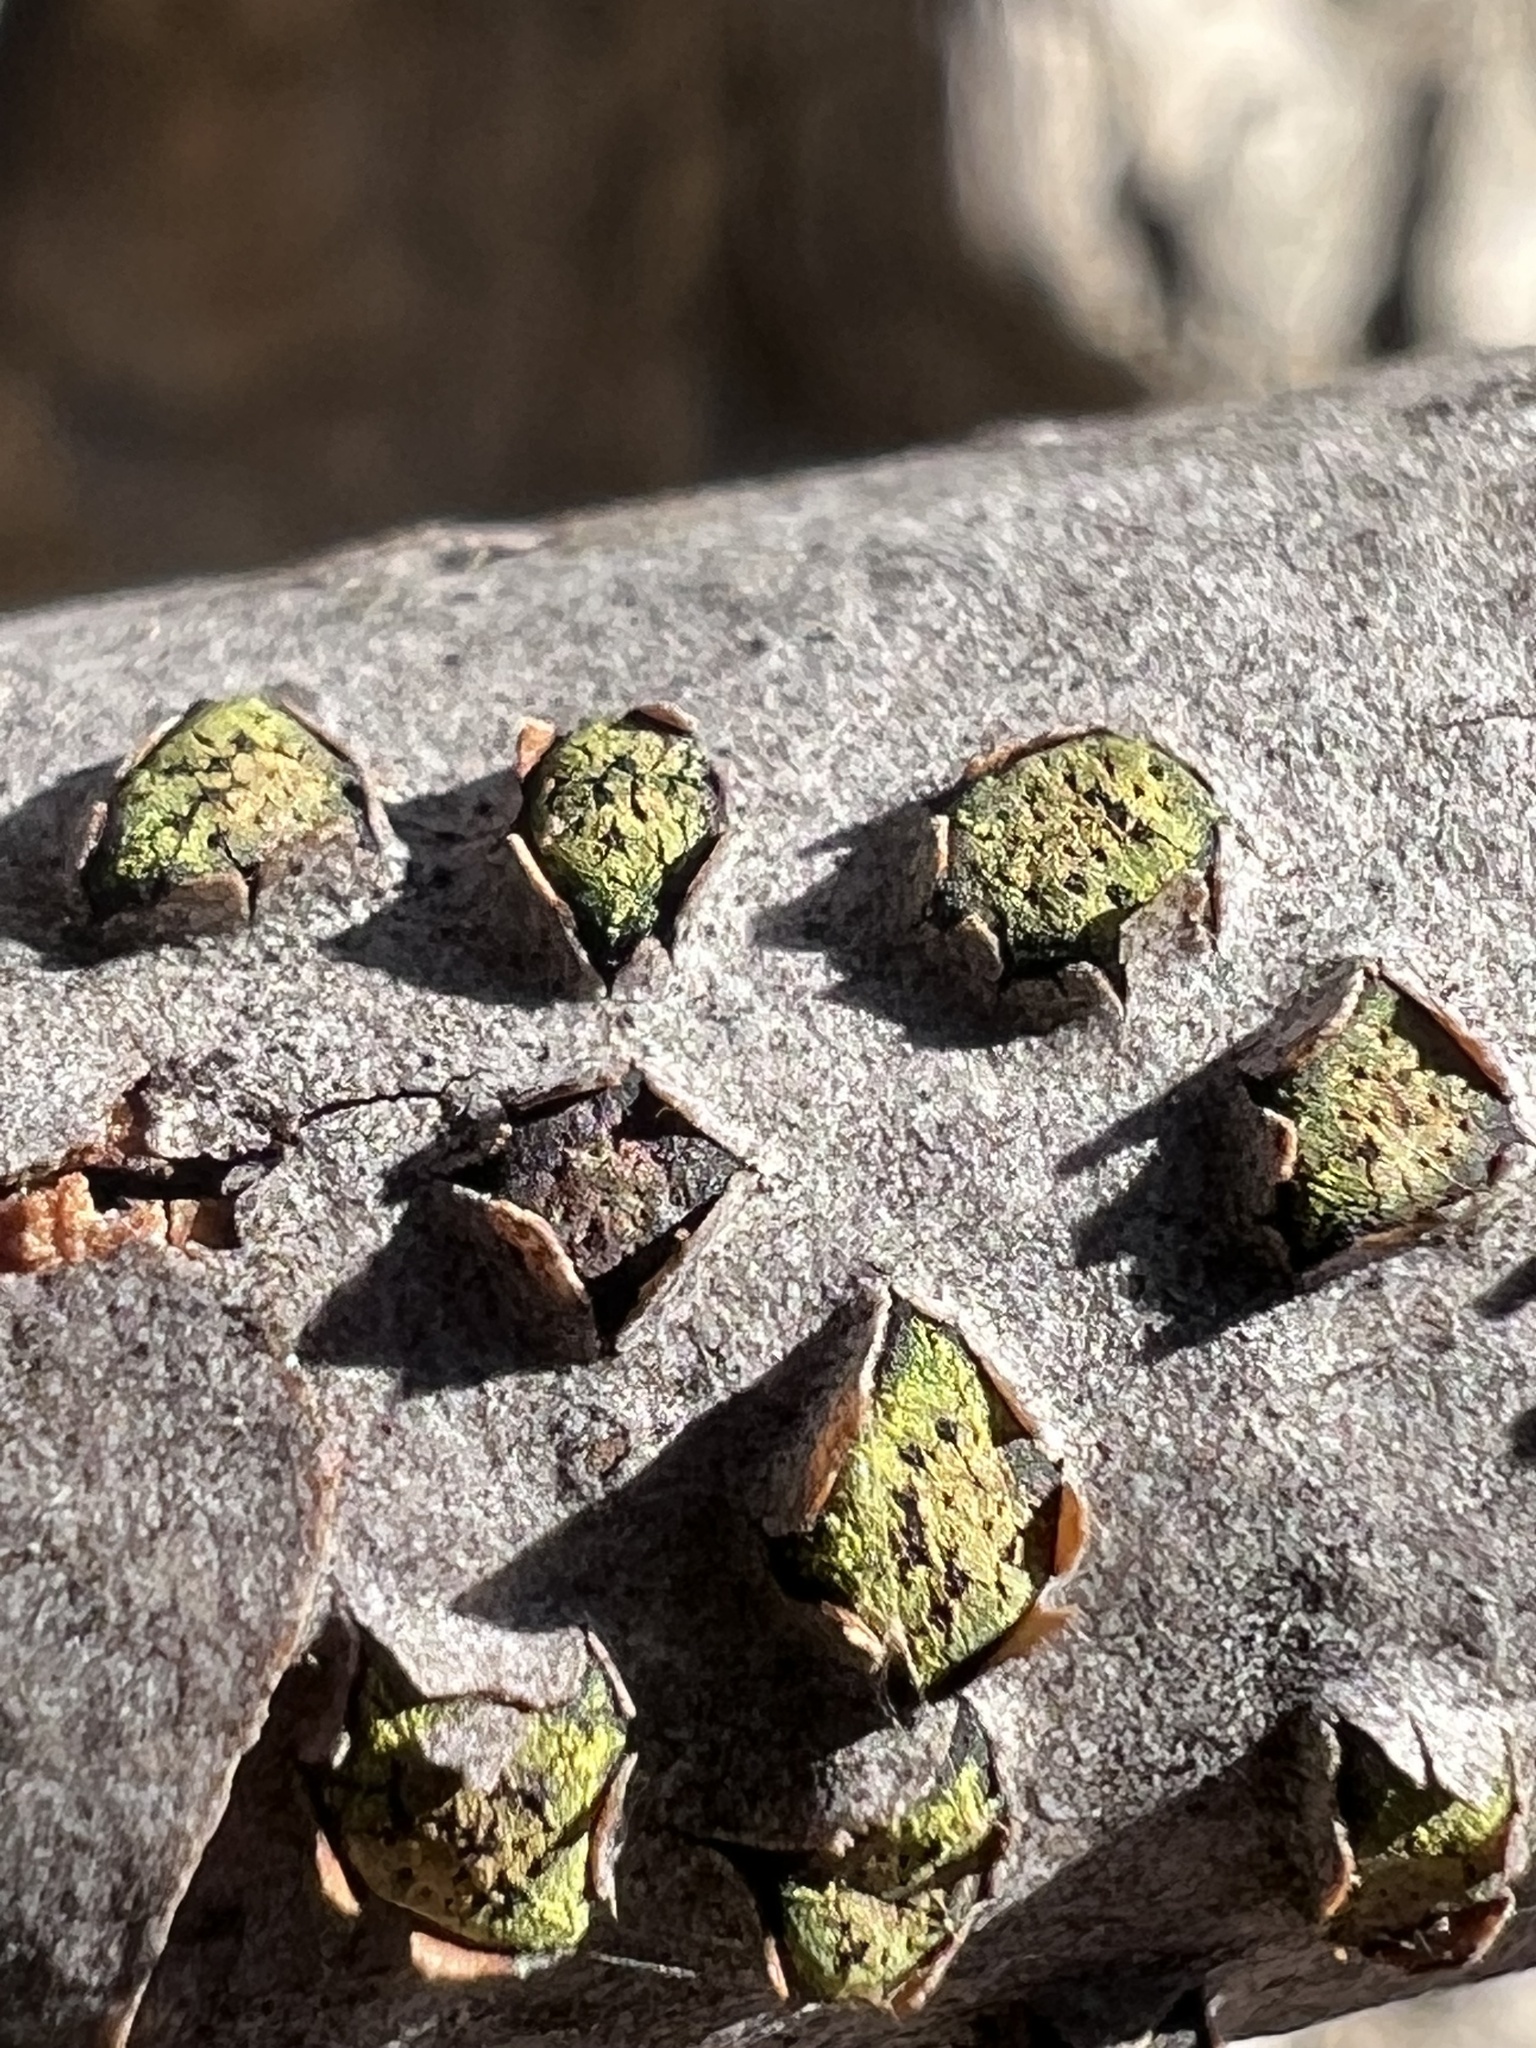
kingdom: Fungi
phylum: Ascomycota
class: Sordariomycetes
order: Xylariales
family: Diatrypaceae
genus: Diatrype
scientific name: Diatrype virescens
